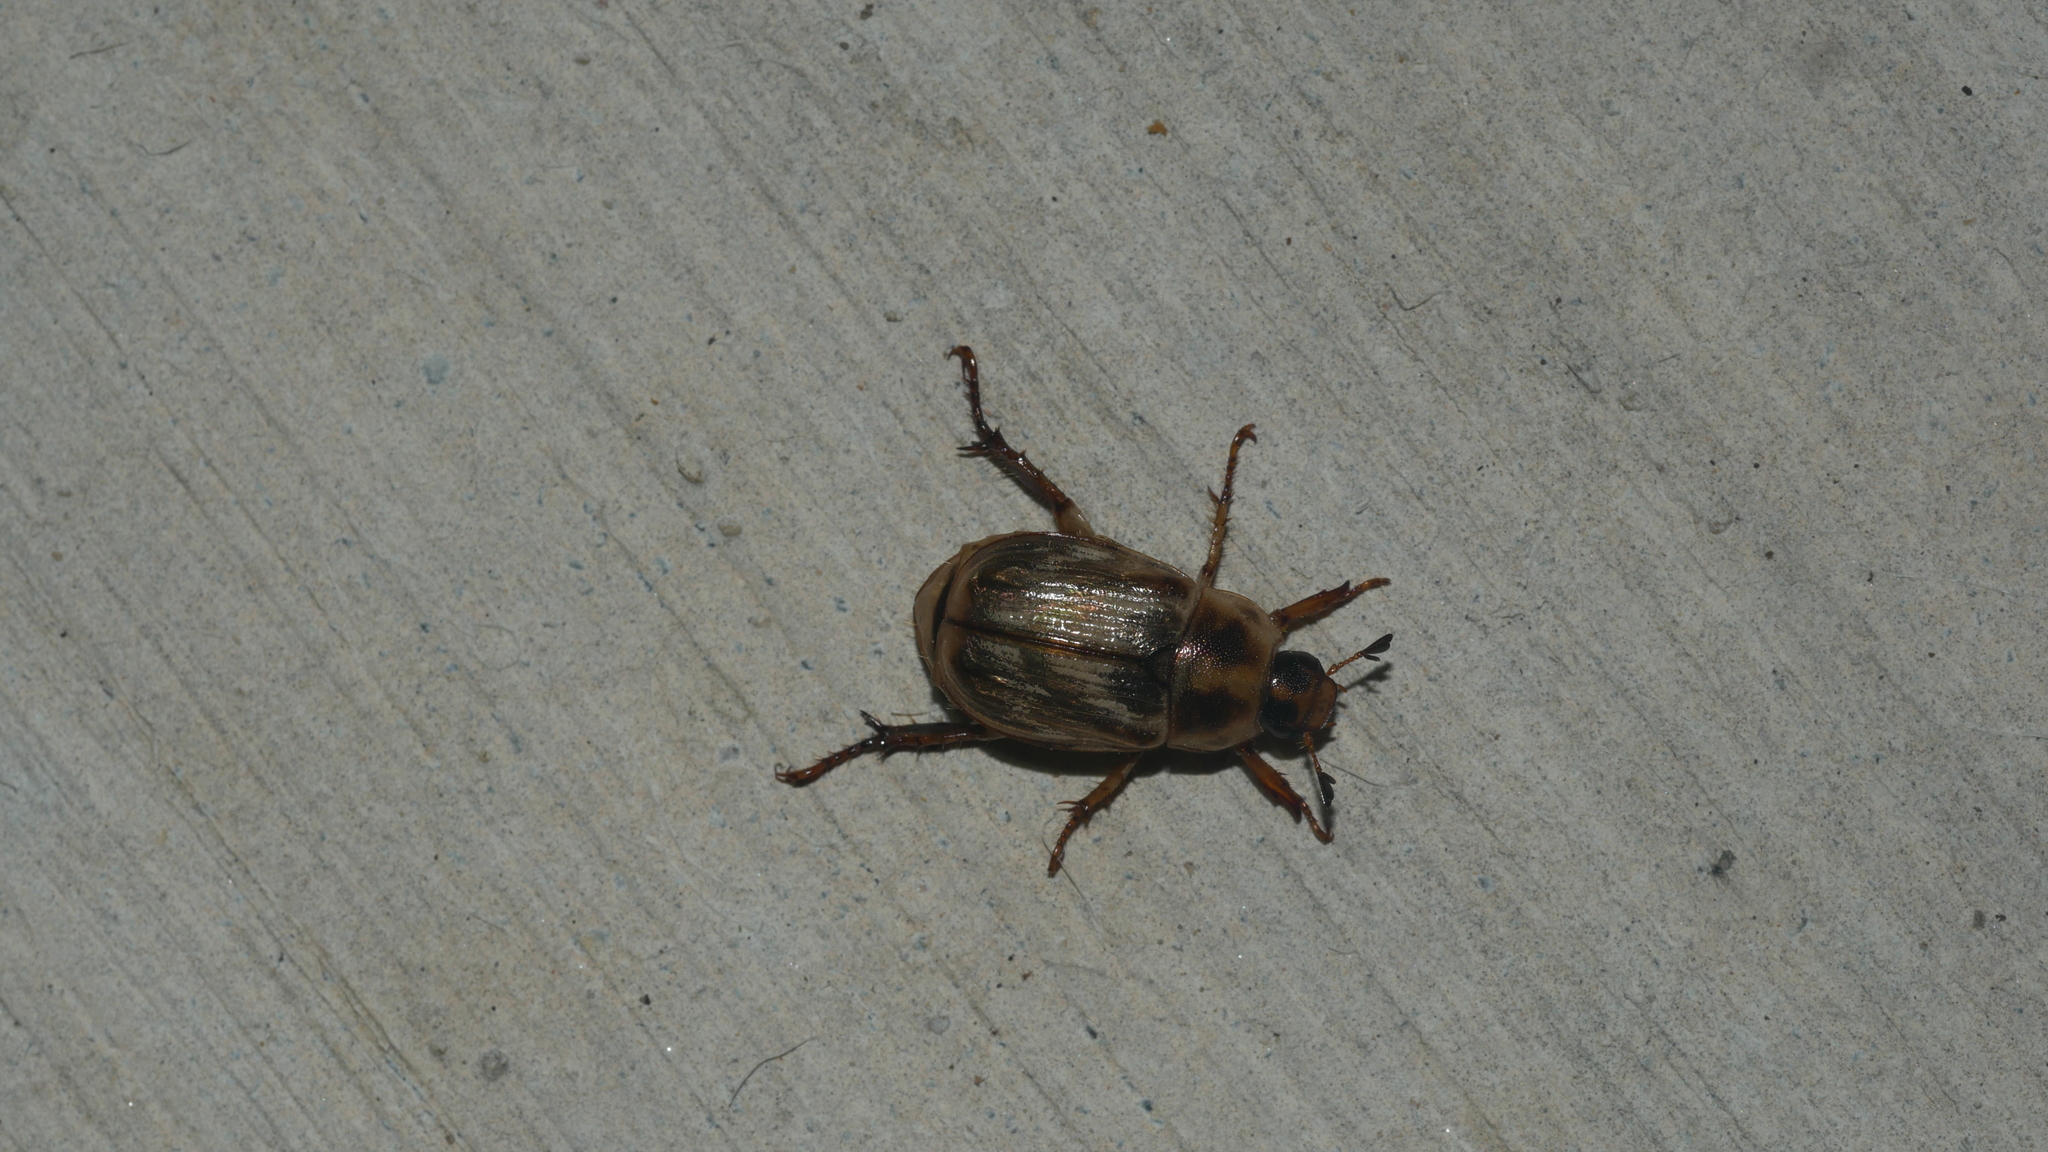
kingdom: Animalia
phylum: Arthropoda
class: Insecta
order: Coleoptera
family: Scarabaeidae
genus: Exomala
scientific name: Exomala orientalis
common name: Oriental beetle
